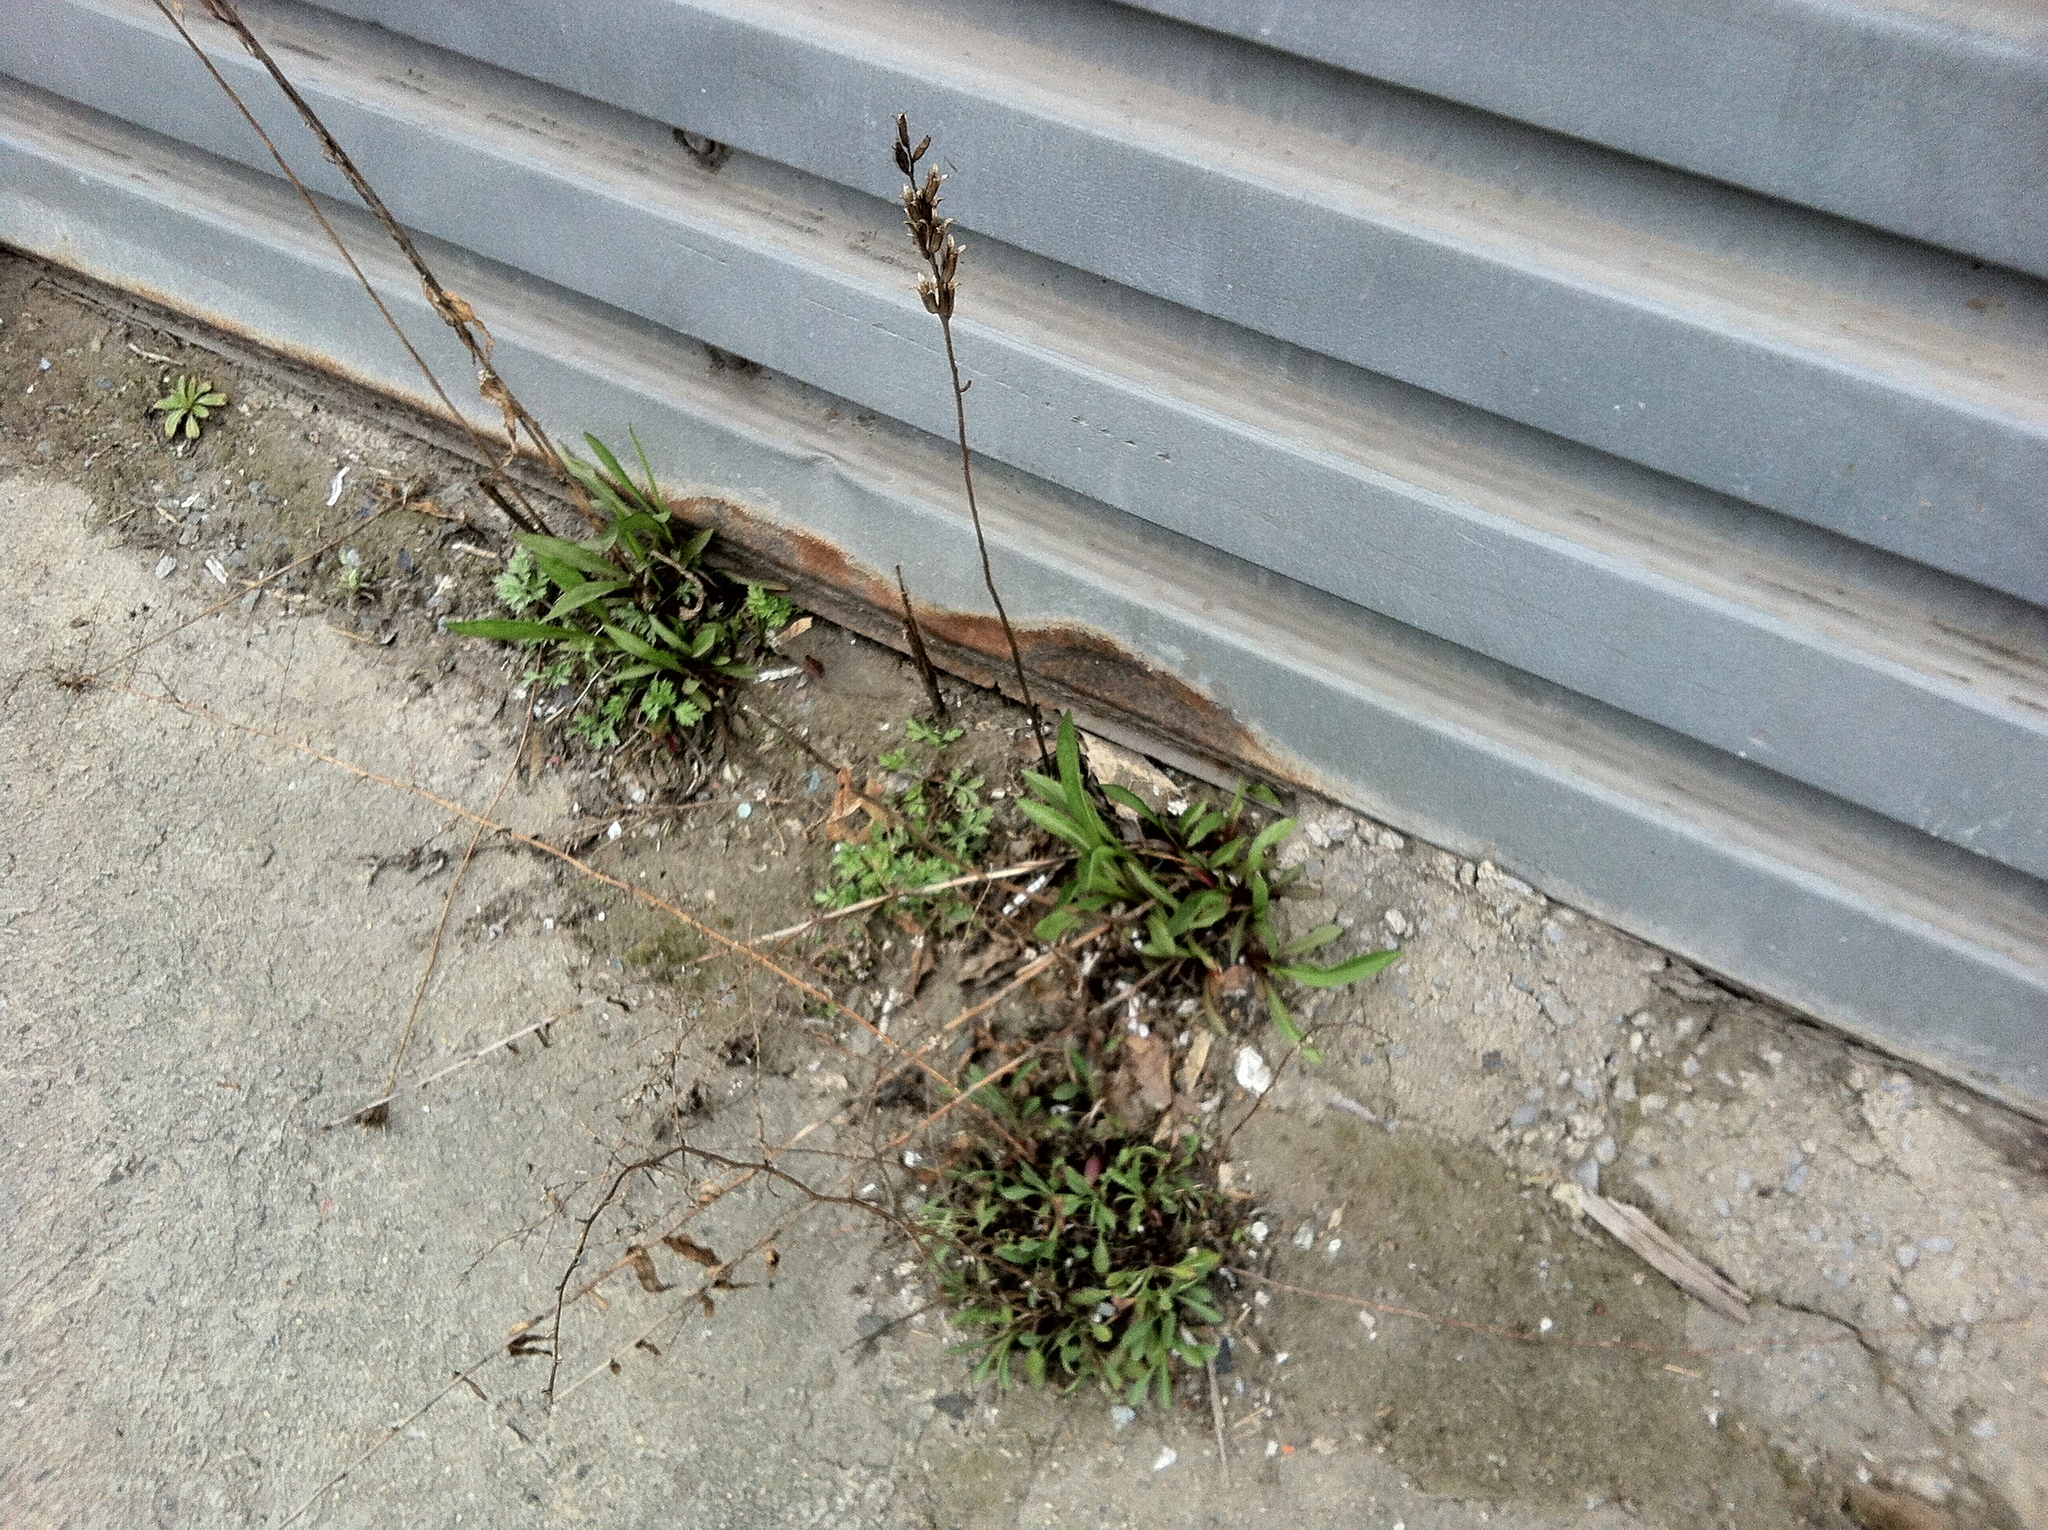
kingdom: Plantae
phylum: Tracheophyta
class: Magnoliopsida
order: Asterales
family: Asteraceae
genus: Solidago
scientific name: Solidago sempervirens
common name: Salt-marsh goldenrod
